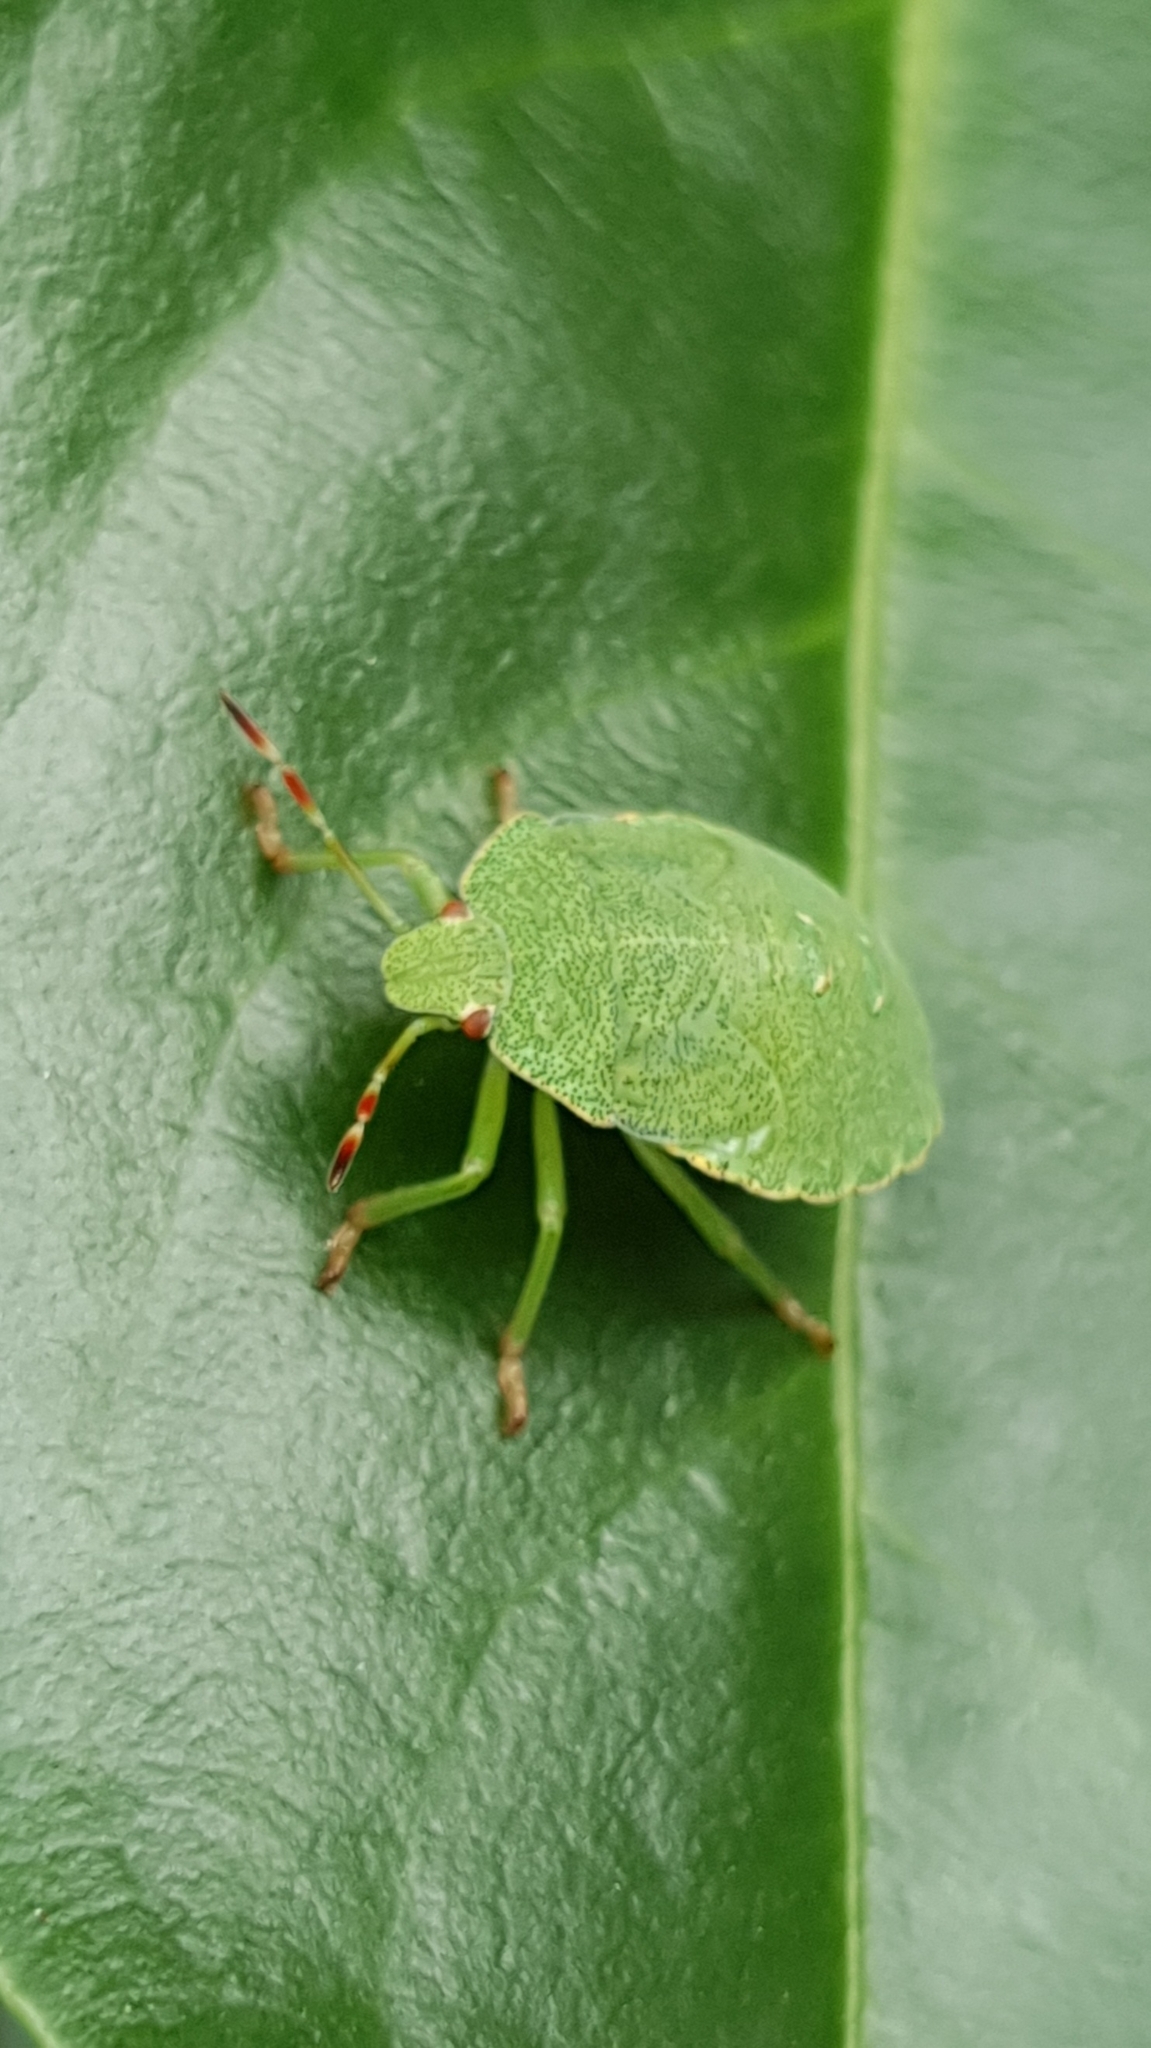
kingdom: Animalia
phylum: Arthropoda
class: Insecta
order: Hemiptera
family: Pentatomidae
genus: Palomena
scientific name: Palomena prasina
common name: Green shieldbug
